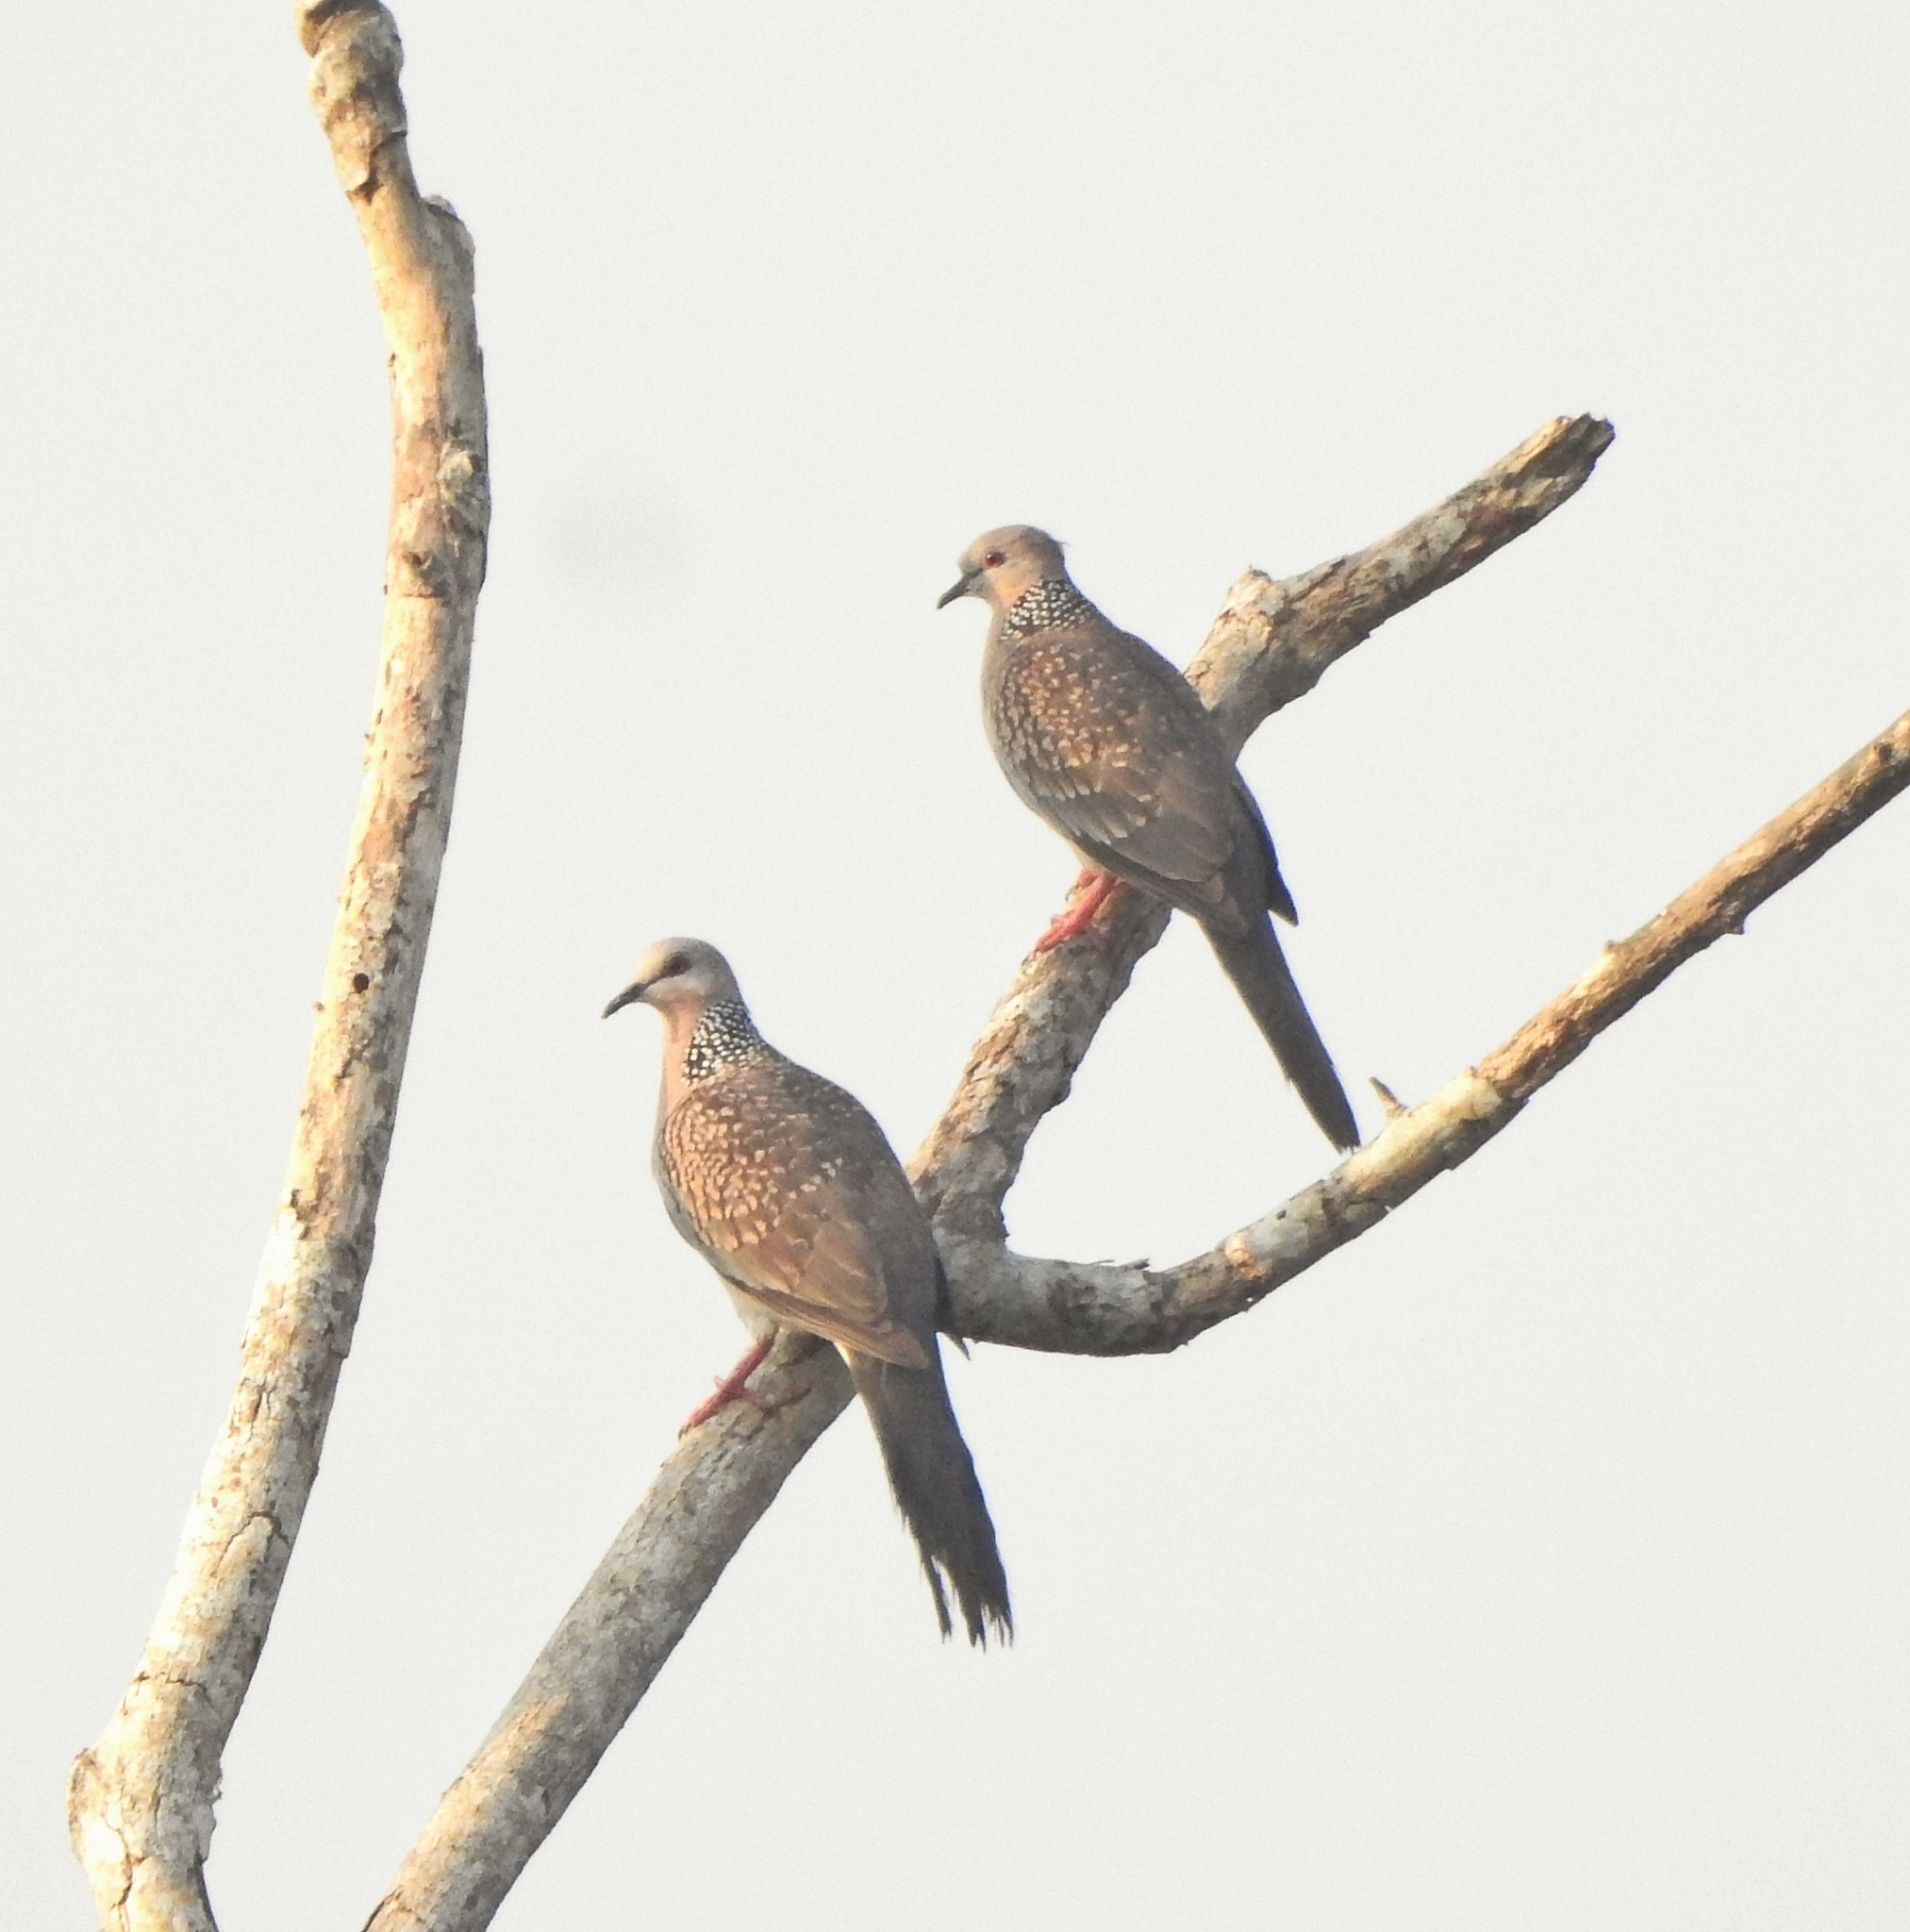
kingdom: Animalia
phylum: Chordata
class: Aves
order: Columbiformes
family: Columbidae
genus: Spilopelia
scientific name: Spilopelia chinensis
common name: Spotted dove
